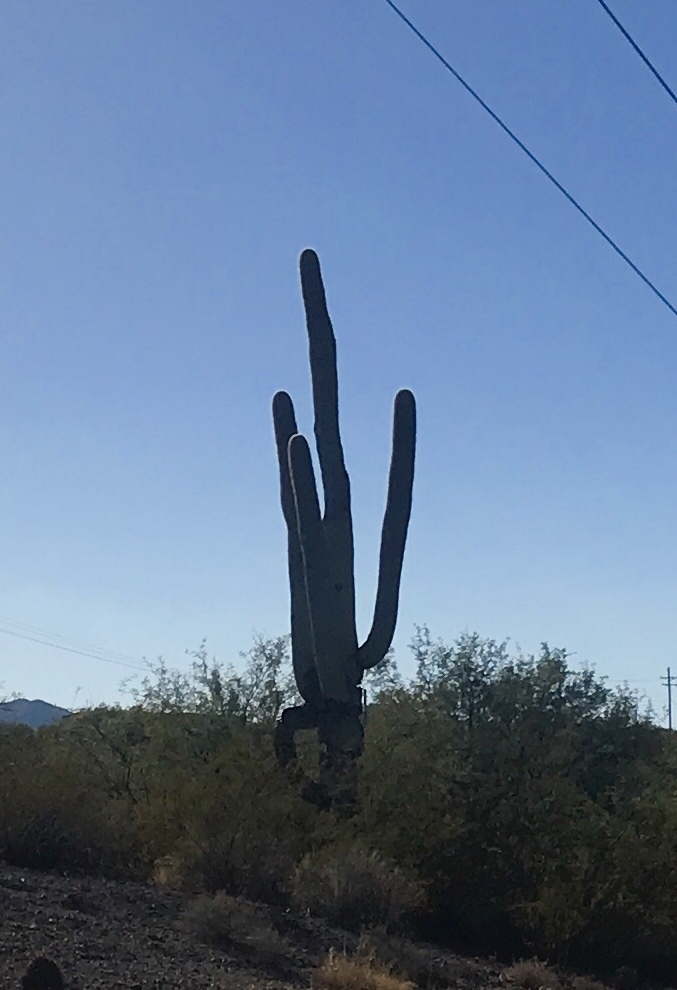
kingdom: Plantae
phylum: Tracheophyta
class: Magnoliopsida
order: Caryophyllales
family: Cactaceae
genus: Carnegiea
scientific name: Carnegiea gigantea
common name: Saguaro
